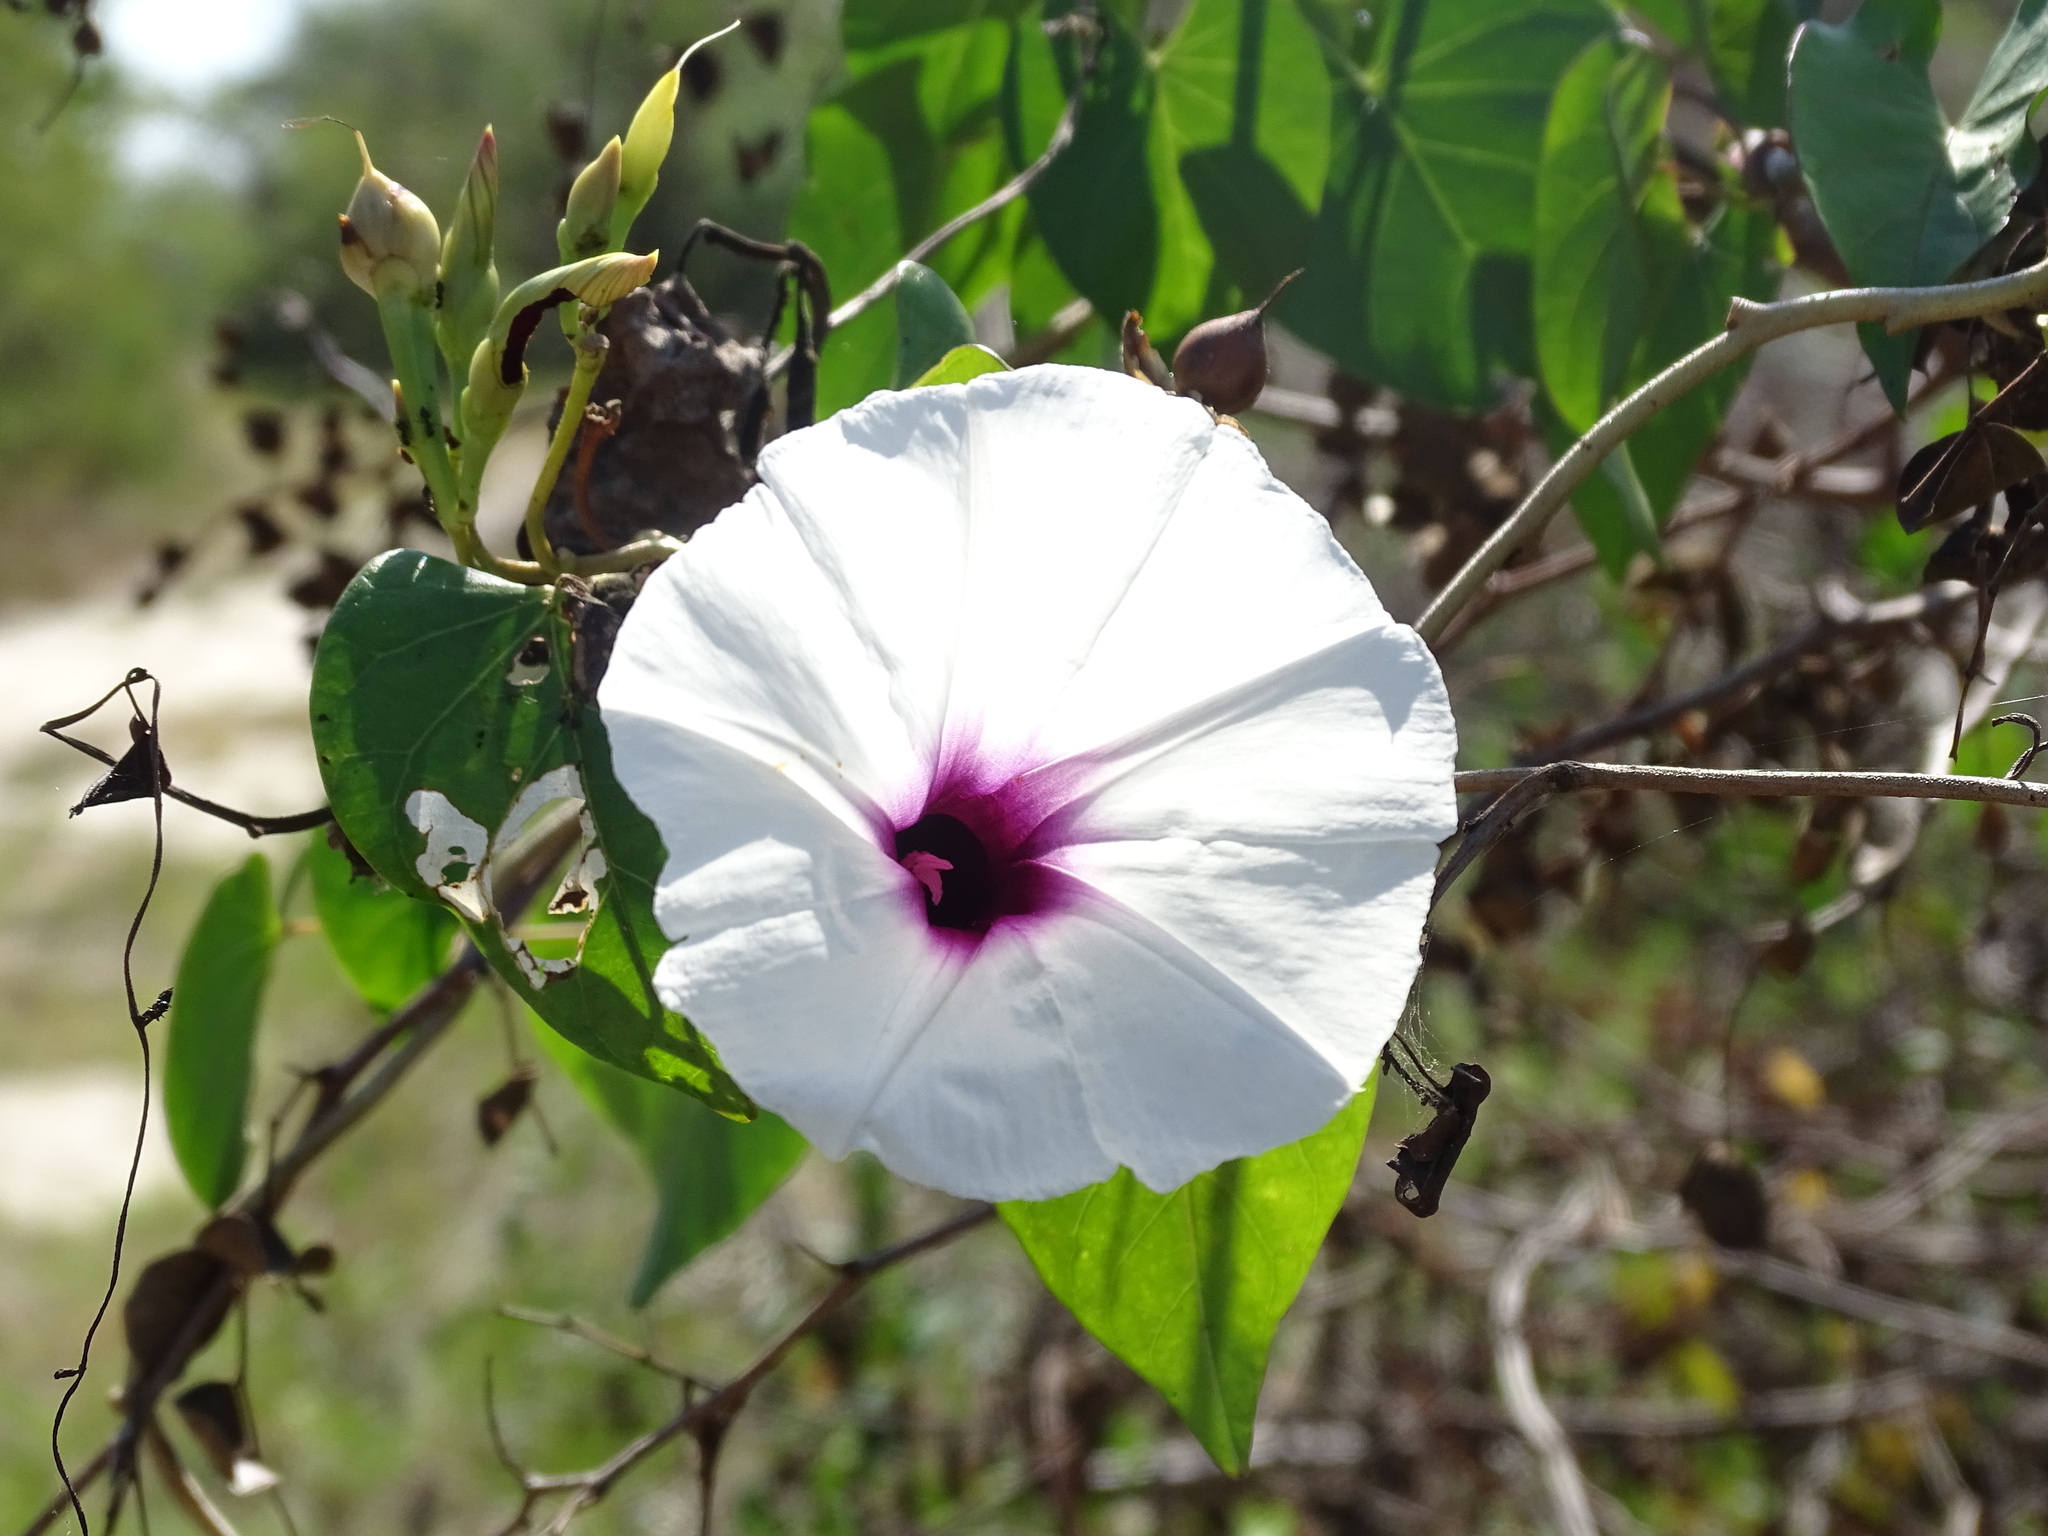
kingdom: Plantae
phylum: Tracheophyta
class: Magnoliopsida
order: Solanales
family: Convolvulaceae
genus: Ipomoea
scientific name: Ipomoea anisomeres
